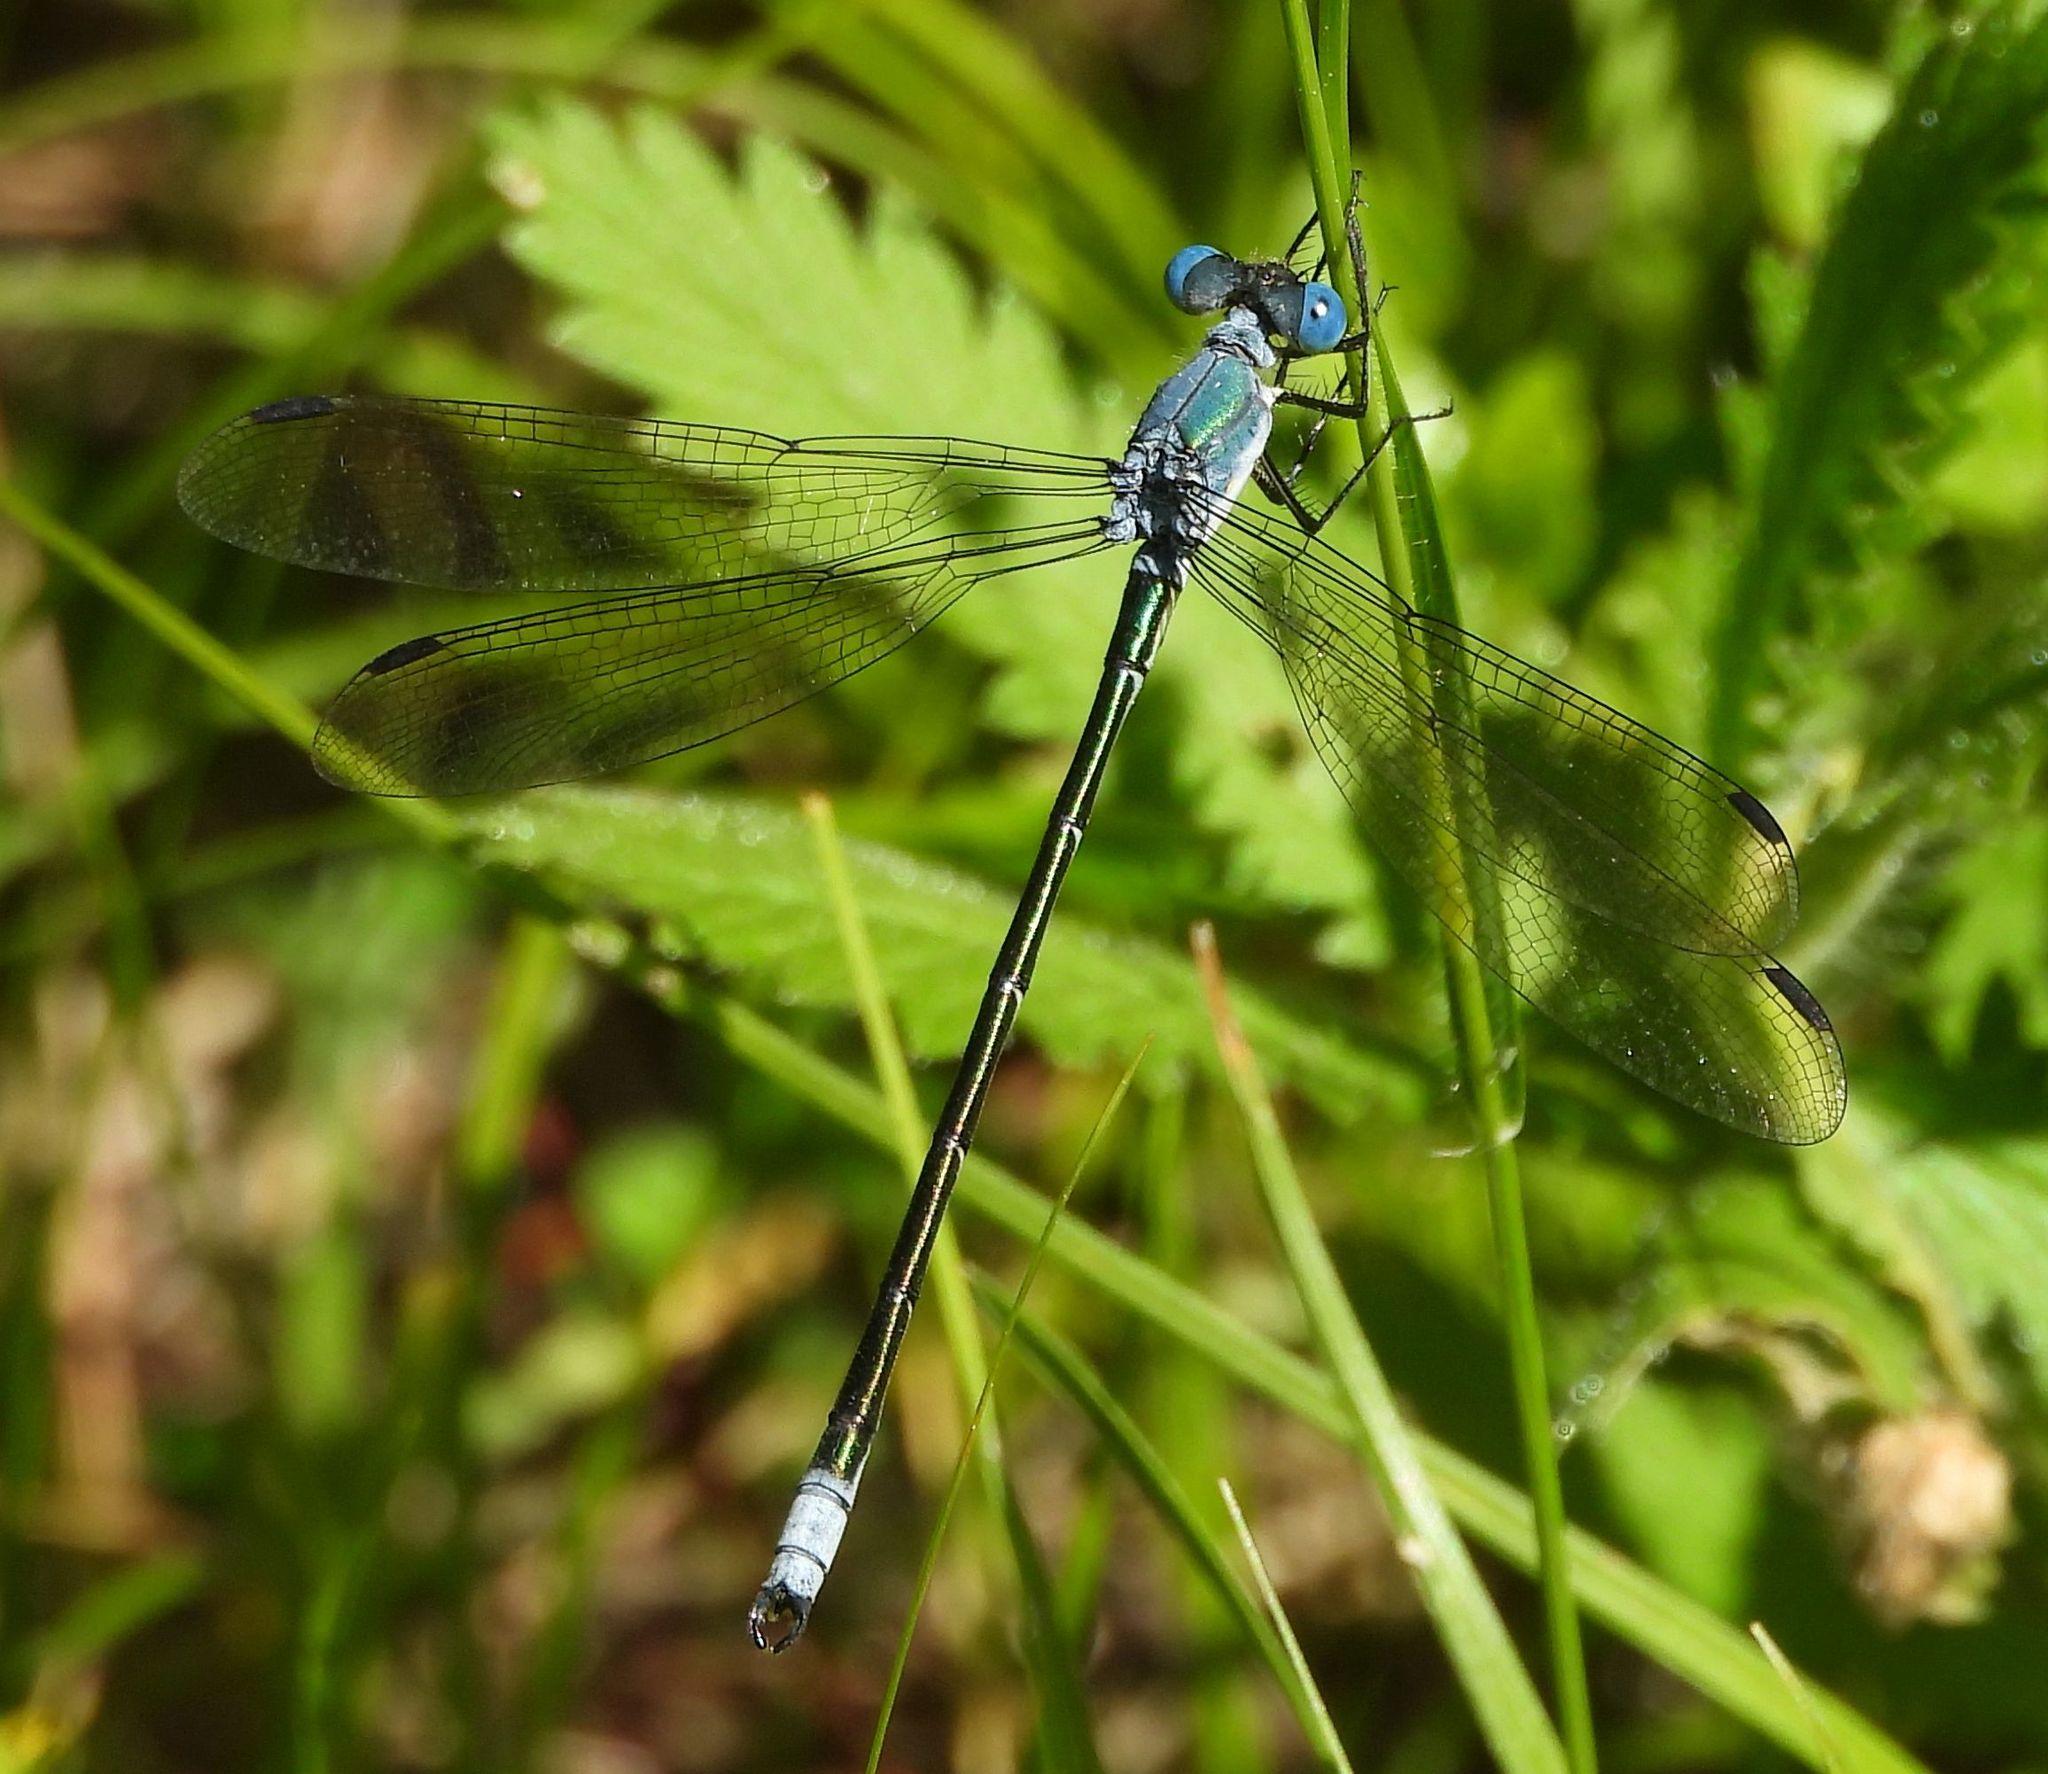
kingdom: Animalia
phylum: Arthropoda
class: Insecta
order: Odonata
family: Lestidae
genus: Lestes
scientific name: Lestes eurinus
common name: Amber-winged spreadwing
